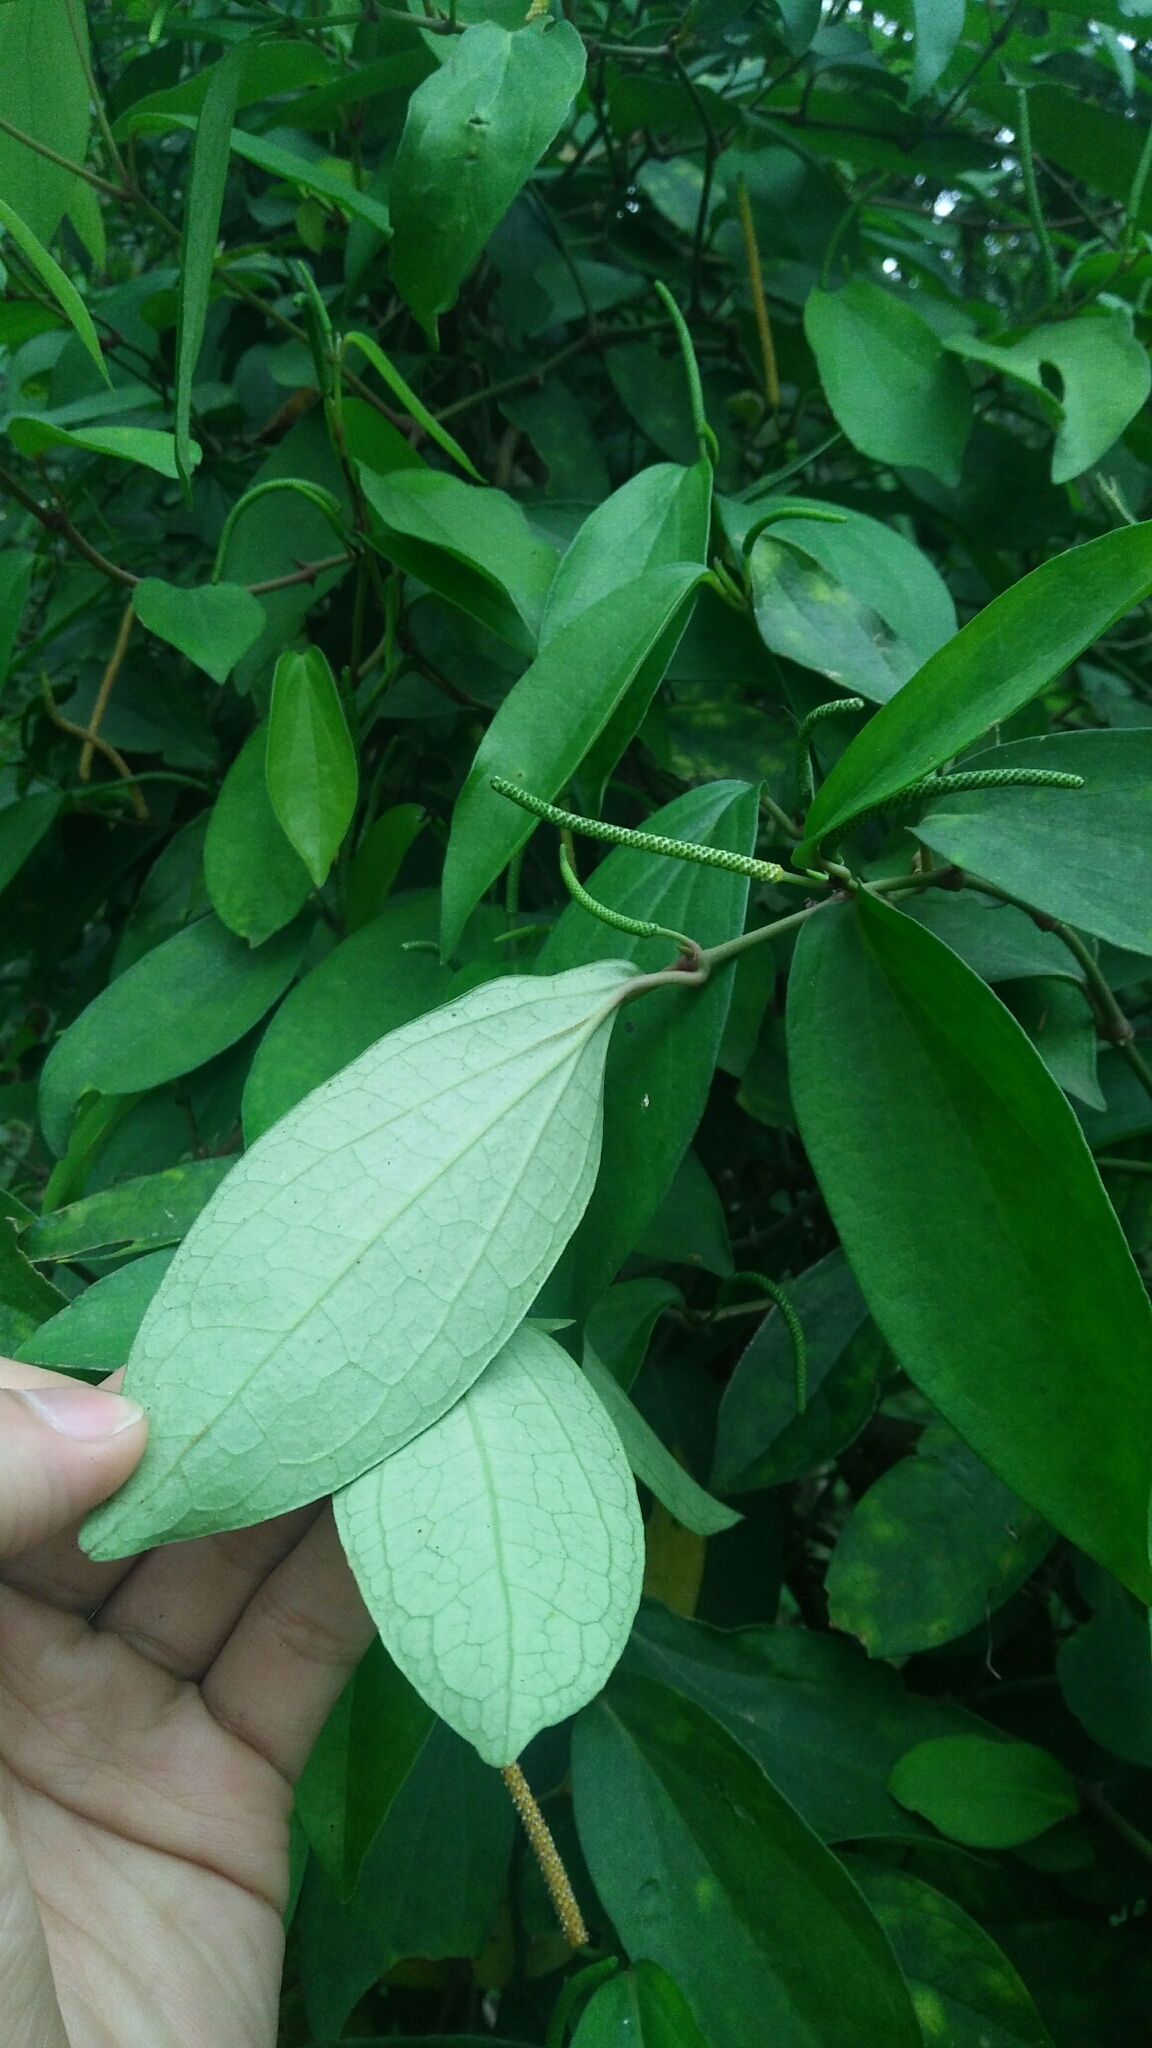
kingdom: Plantae
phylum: Tracheophyta
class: Magnoliopsida
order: Piperales
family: Piperaceae
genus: Piper
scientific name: Piper kadsura
